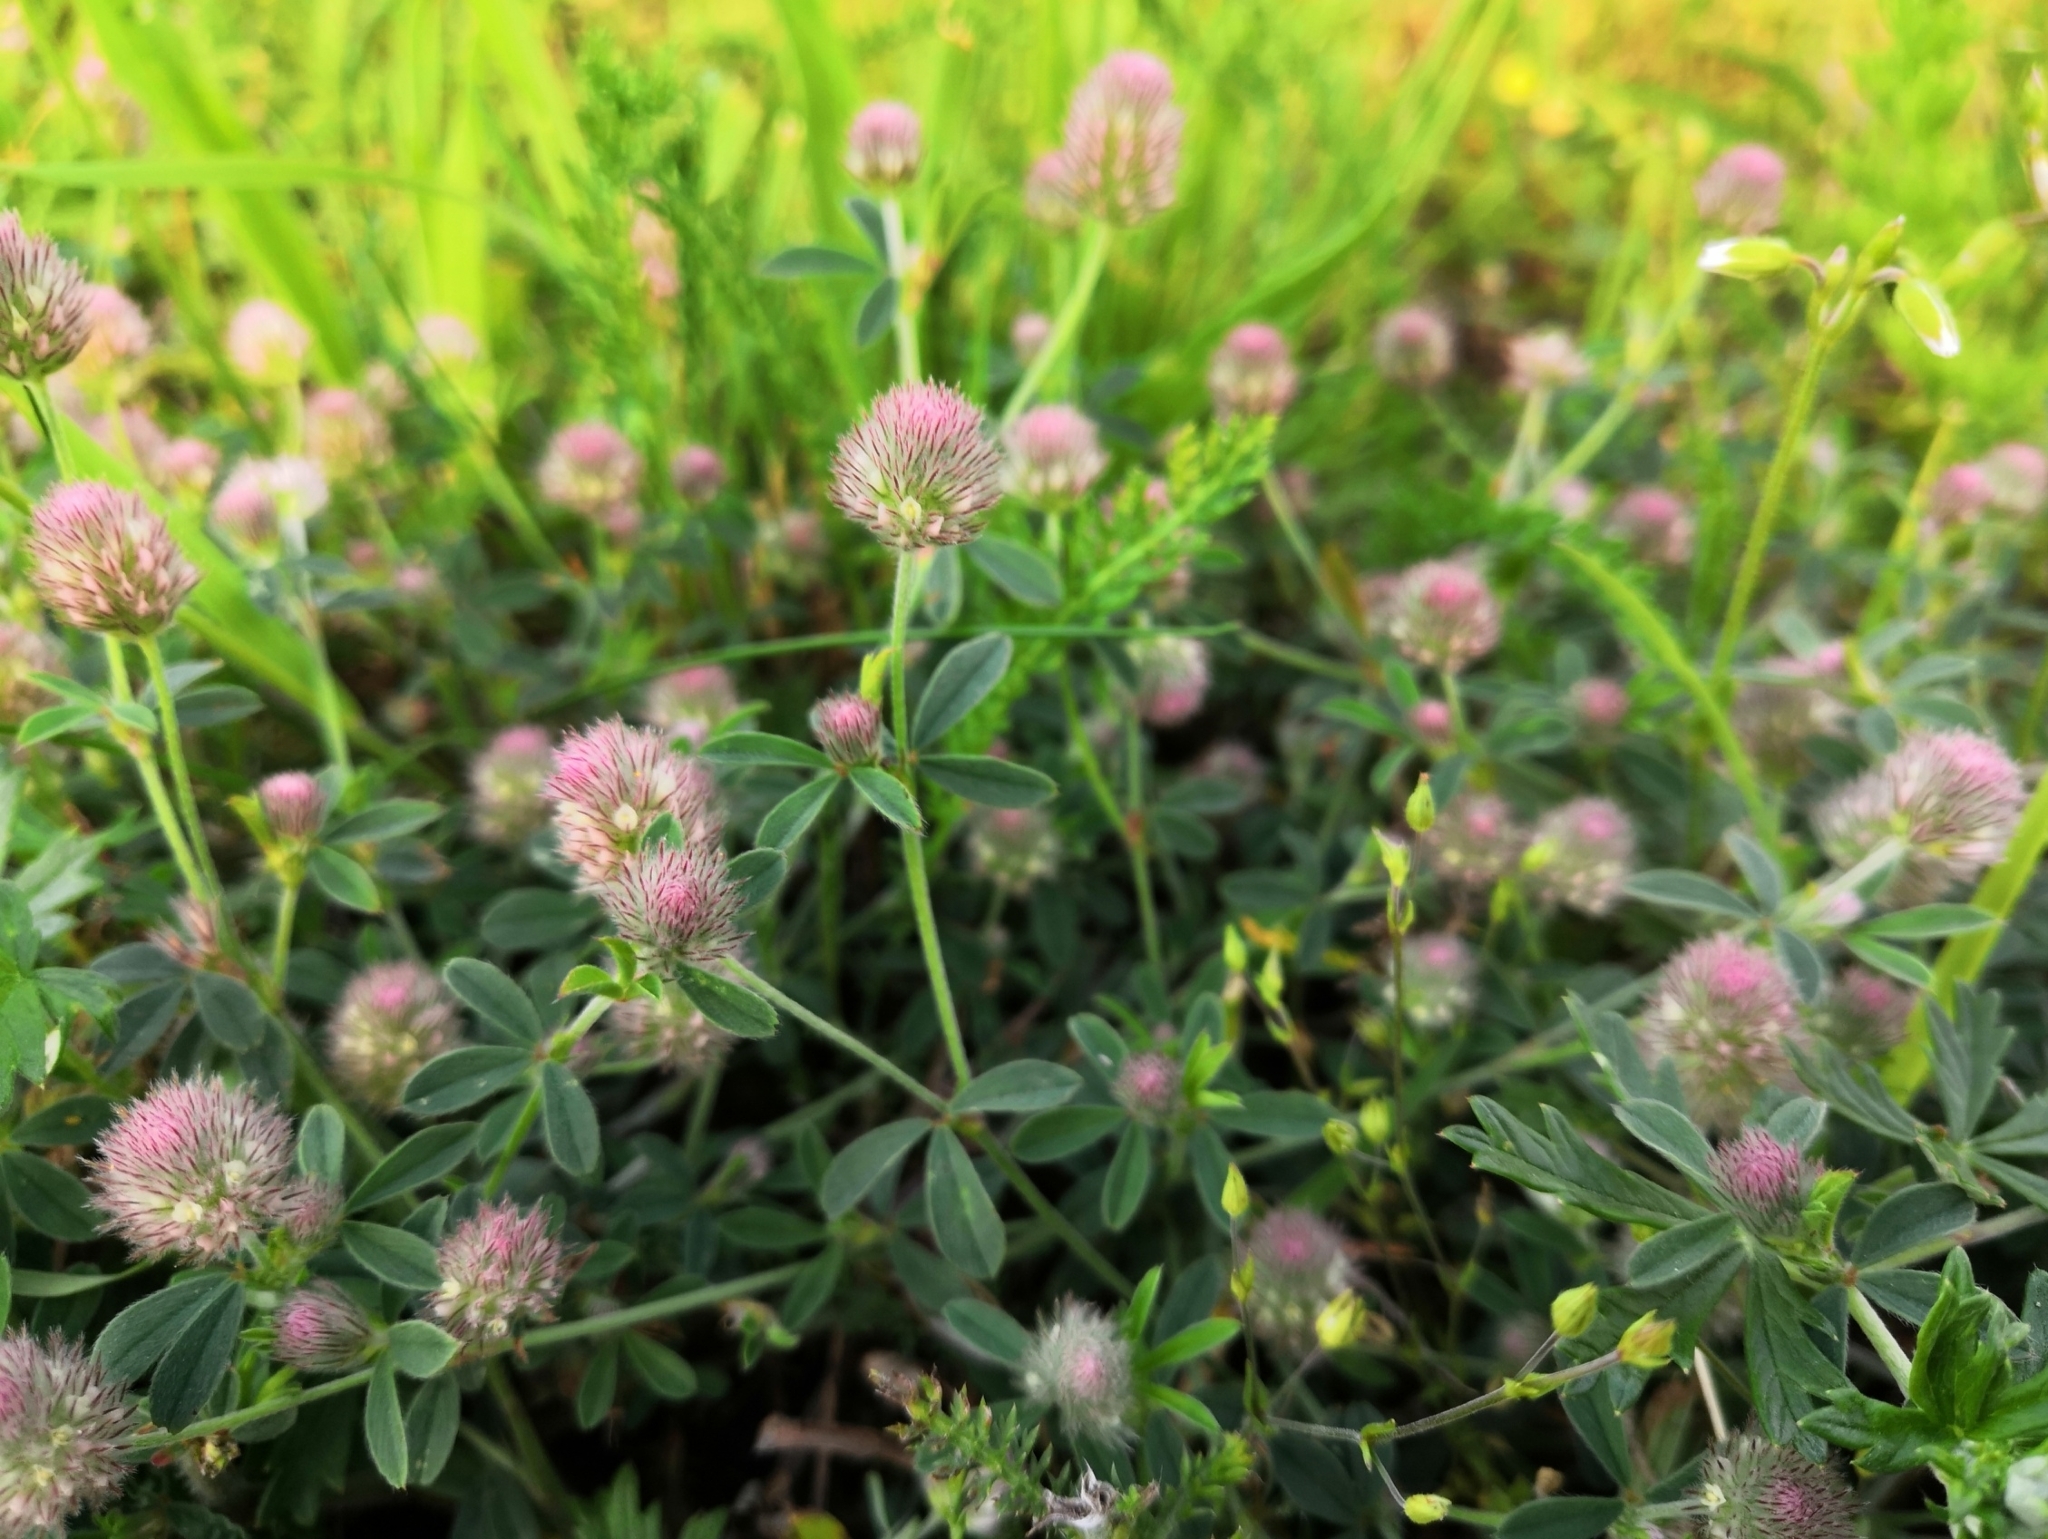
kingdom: Plantae
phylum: Tracheophyta
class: Magnoliopsida
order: Fabales
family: Fabaceae
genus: Trifolium
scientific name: Trifolium arvense
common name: Hare's-foot clover
